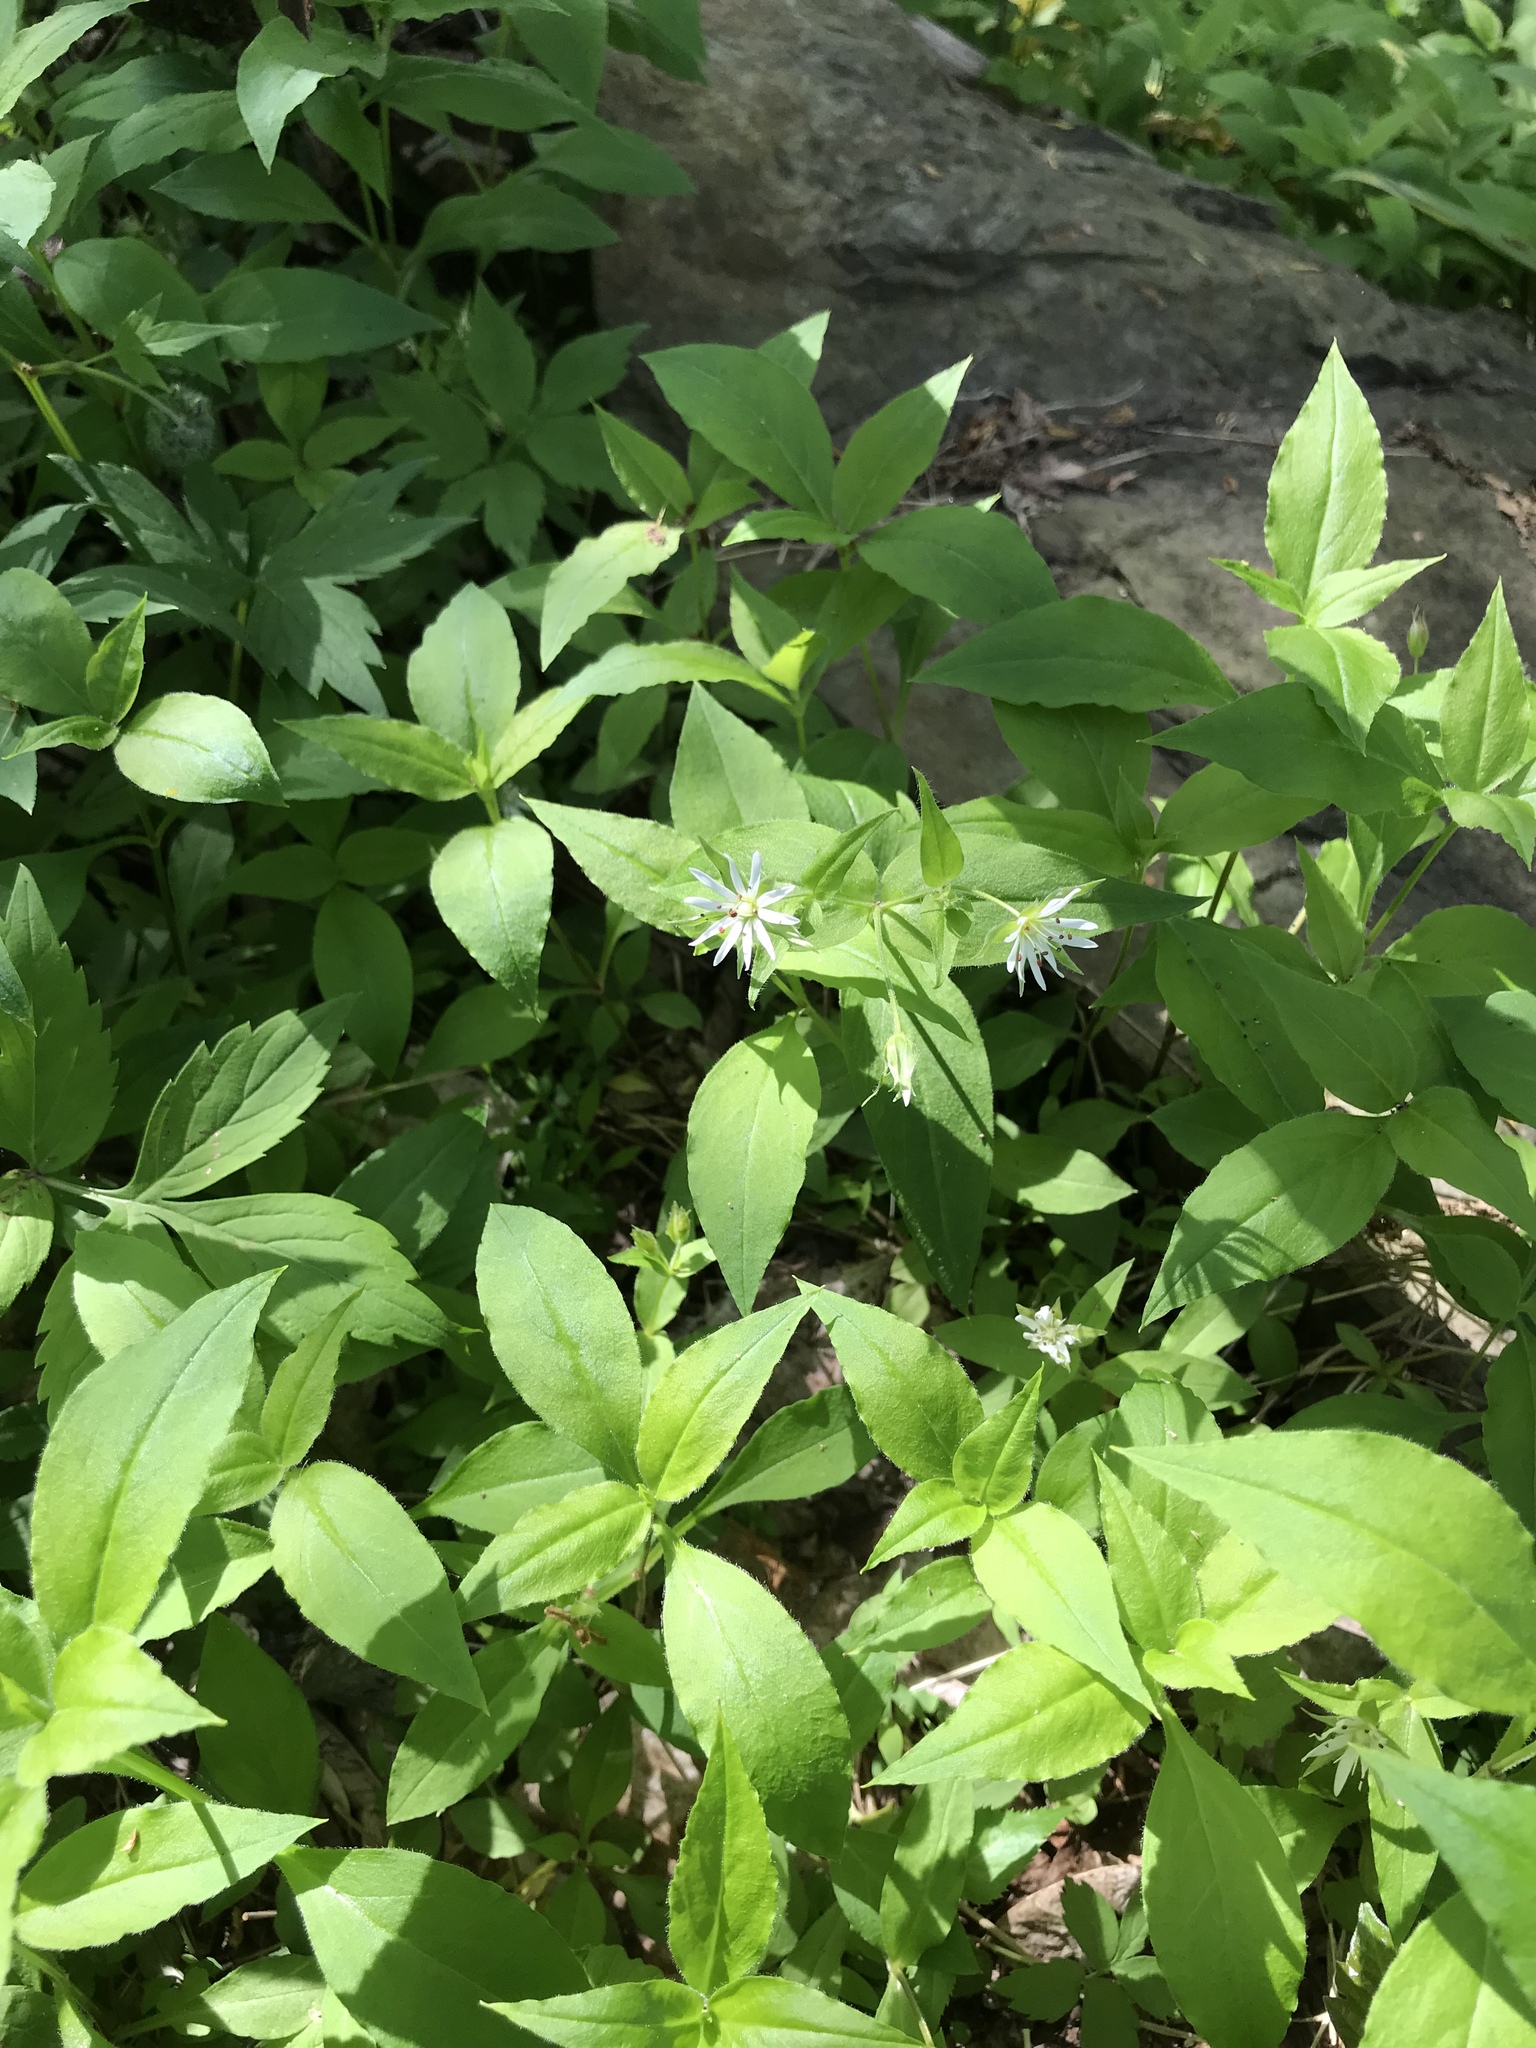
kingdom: Plantae
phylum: Tracheophyta
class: Magnoliopsida
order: Caryophyllales
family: Caryophyllaceae
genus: Stellaria
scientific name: Stellaria corei
